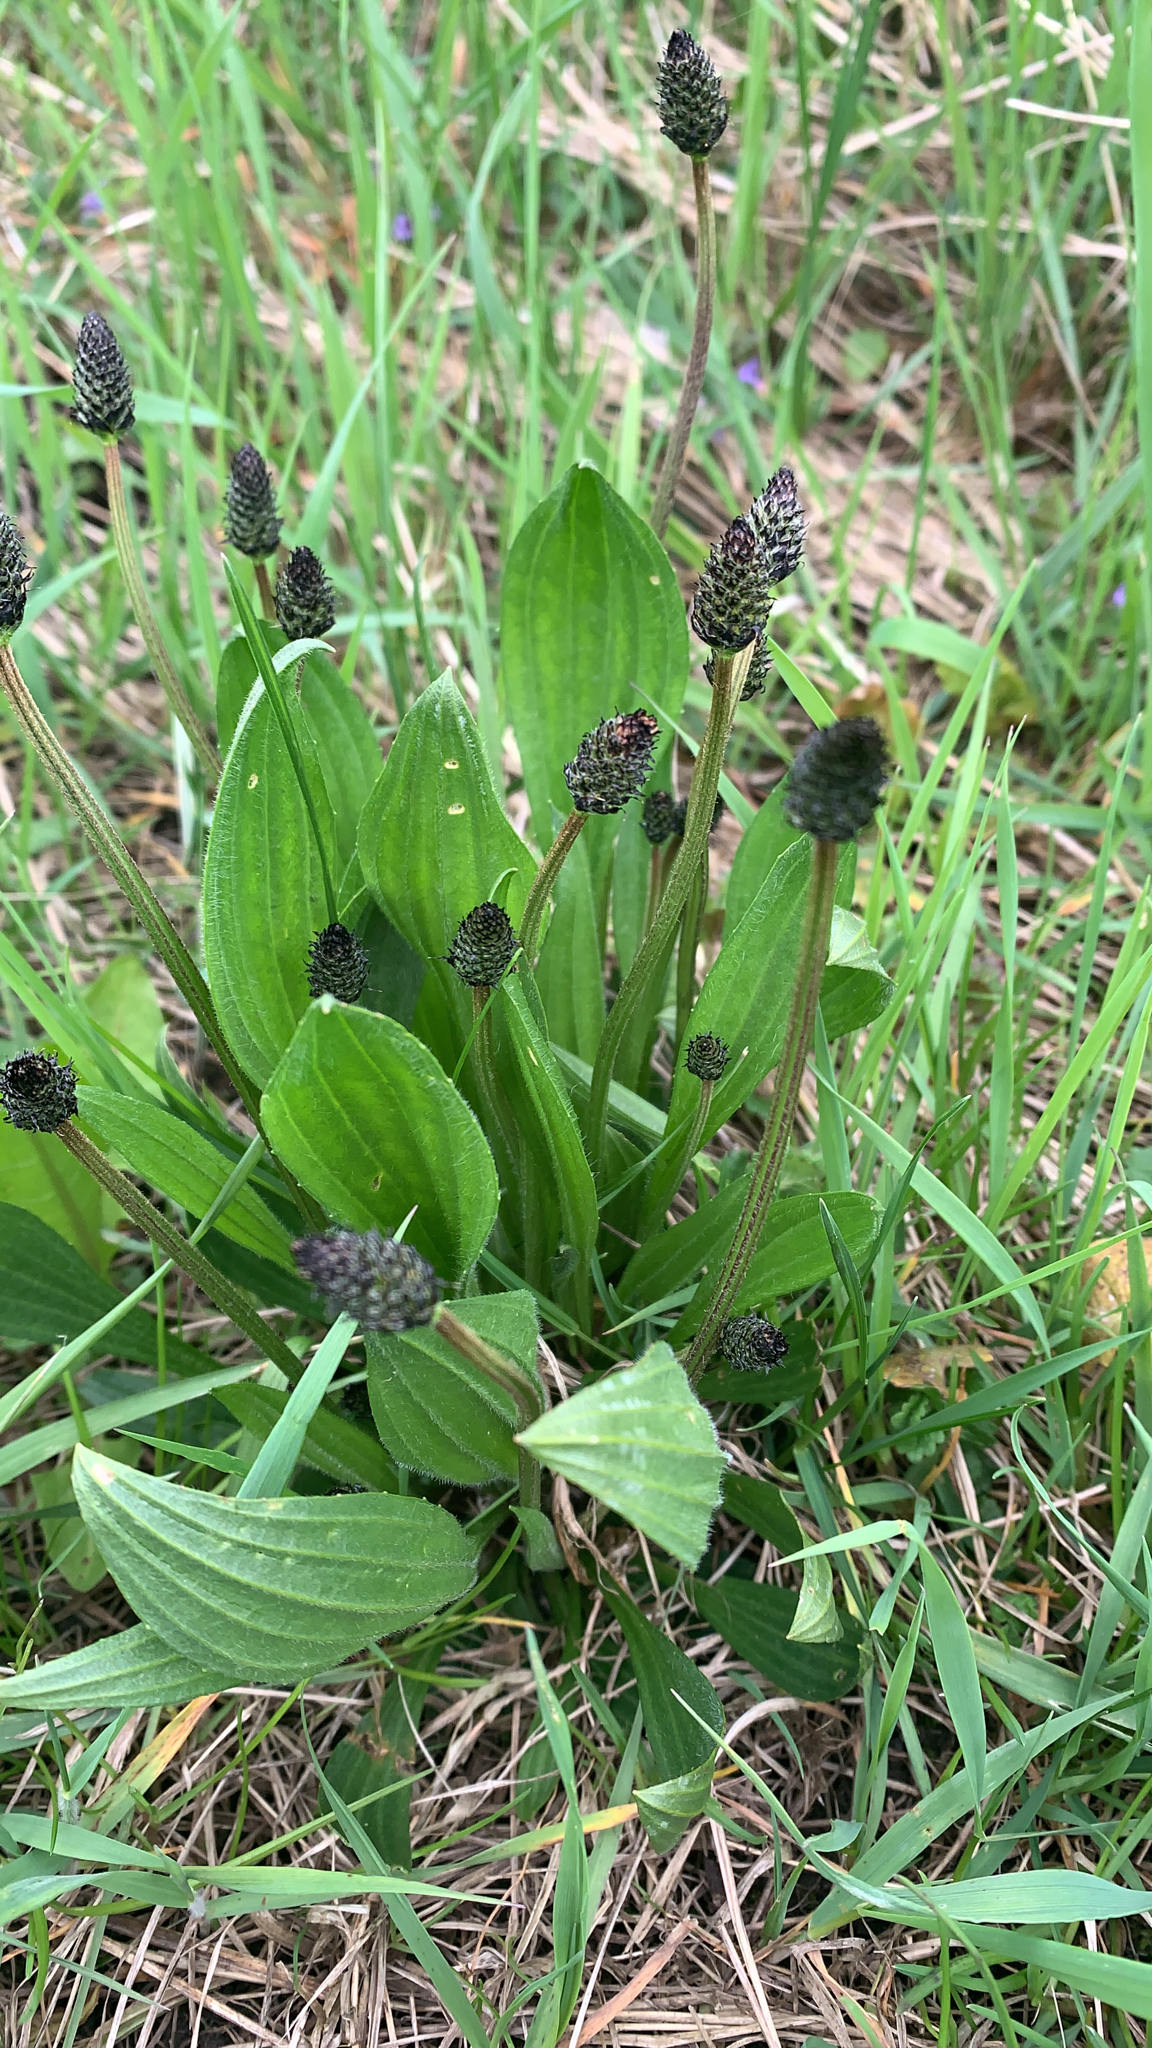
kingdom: Plantae
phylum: Tracheophyta
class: Magnoliopsida
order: Lamiales
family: Plantaginaceae
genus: Plantago
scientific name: Plantago lanceolata
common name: Ribwort plantain
